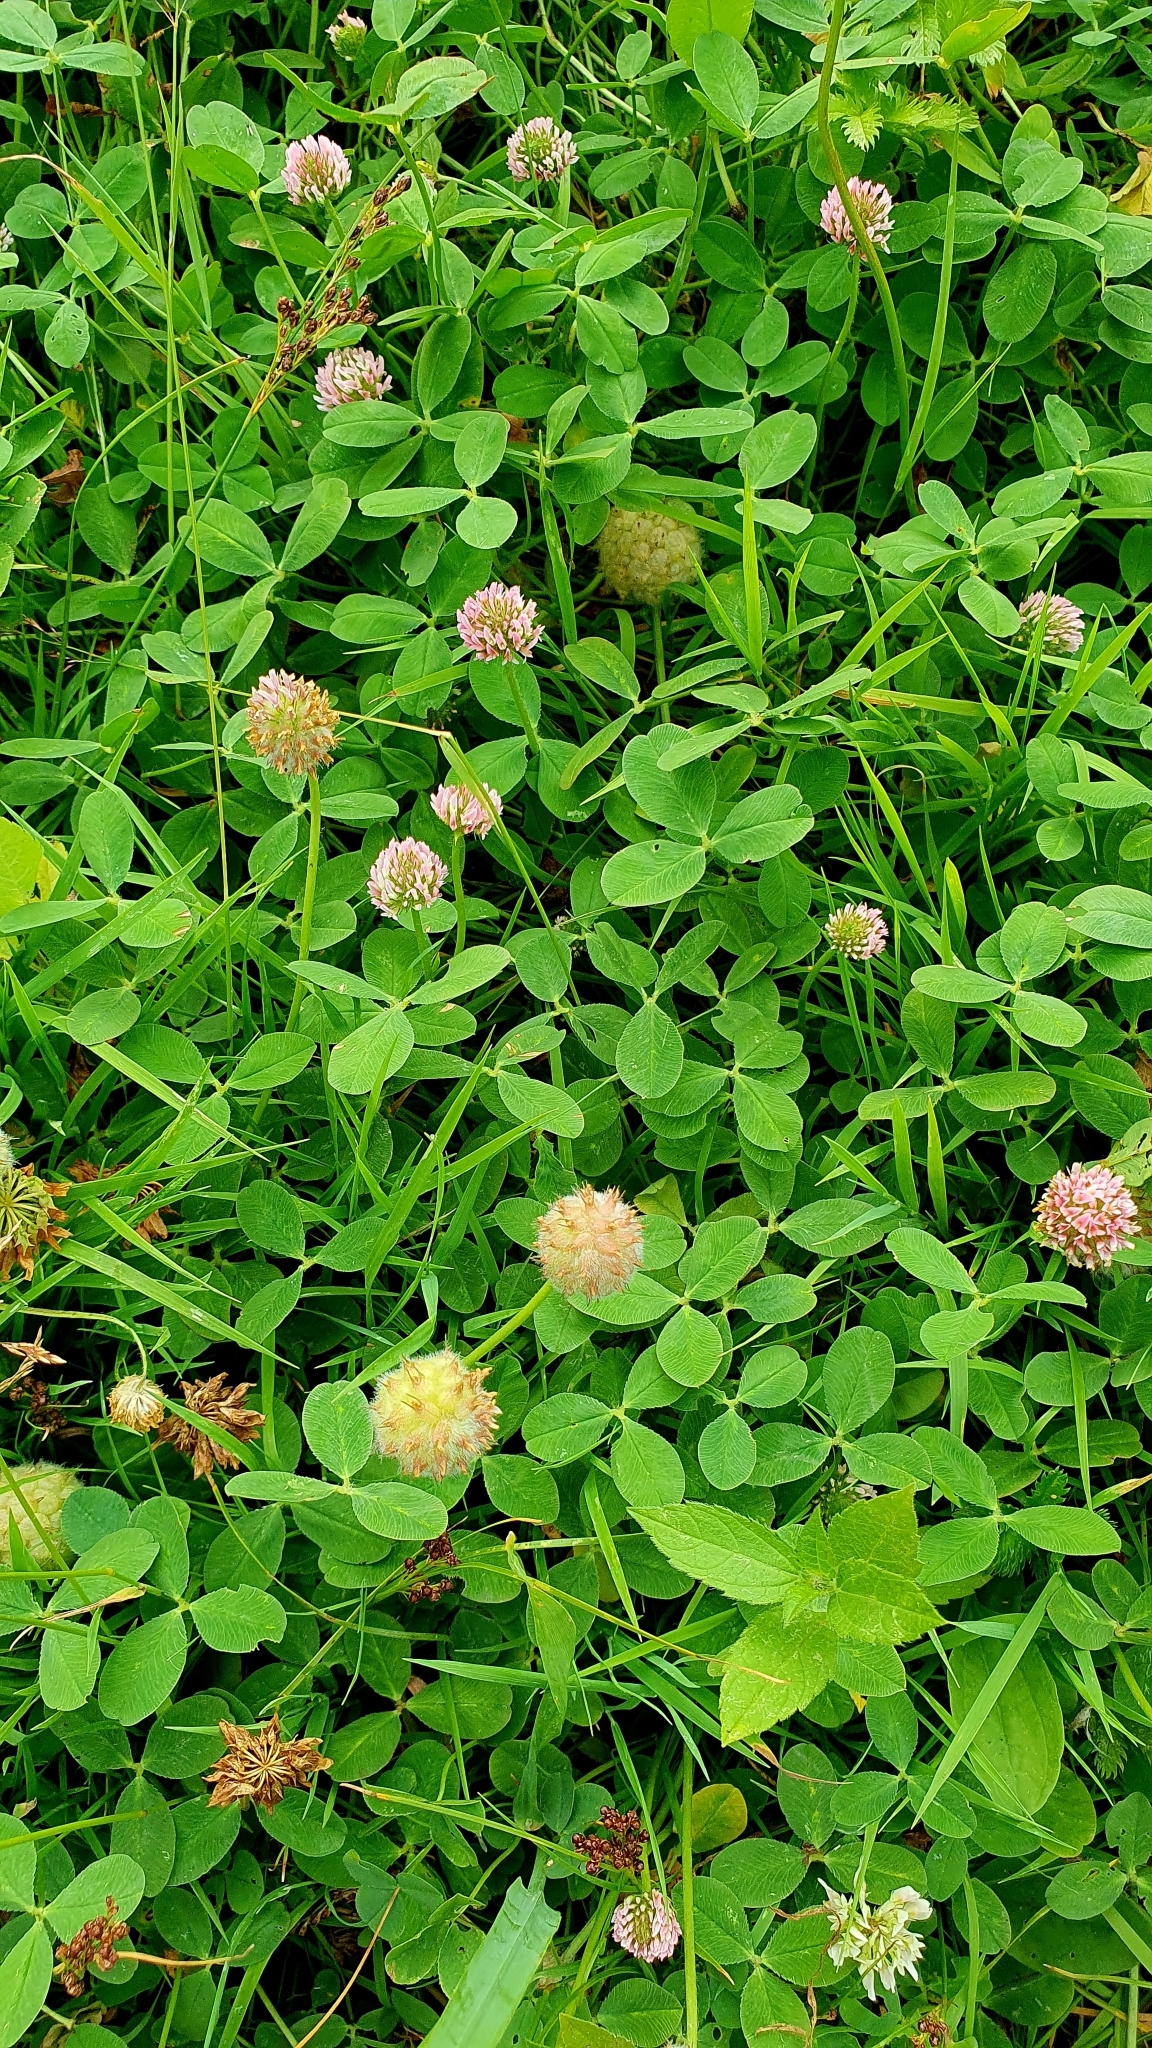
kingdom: Plantae
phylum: Tracheophyta
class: Magnoliopsida
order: Fabales
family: Fabaceae
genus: Trifolium
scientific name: Trifolium fragiferum
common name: Strawberry clover
